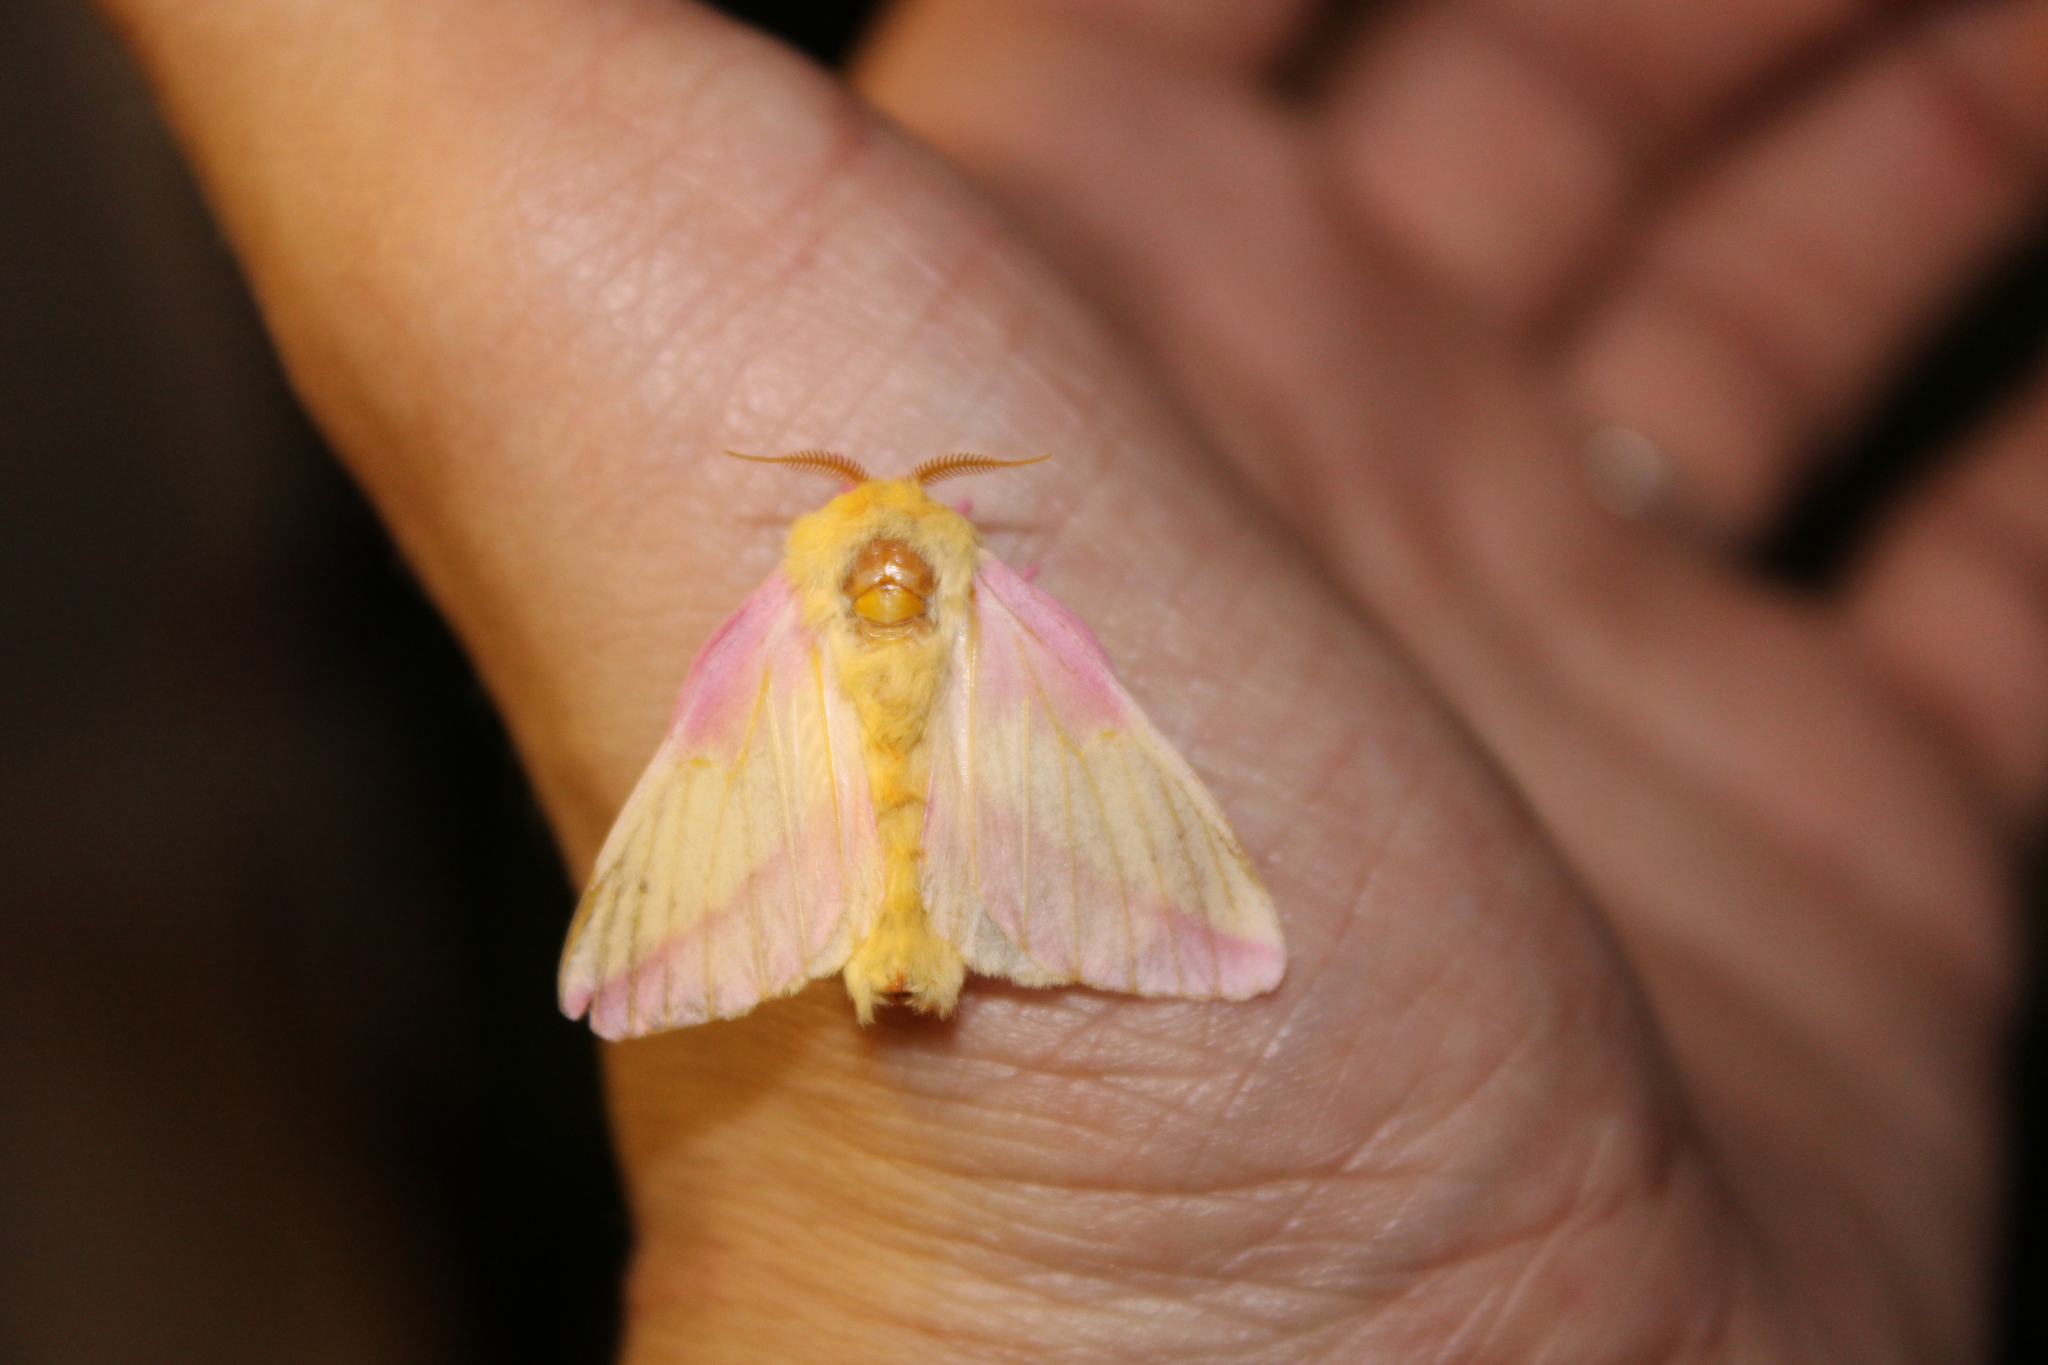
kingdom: Animalia
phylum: Arthropoda
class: Insecta
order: Lepidoptera
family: Saturniidae
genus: Dryocampa
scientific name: Dryocampa rubicunda
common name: Rosy maple moth
